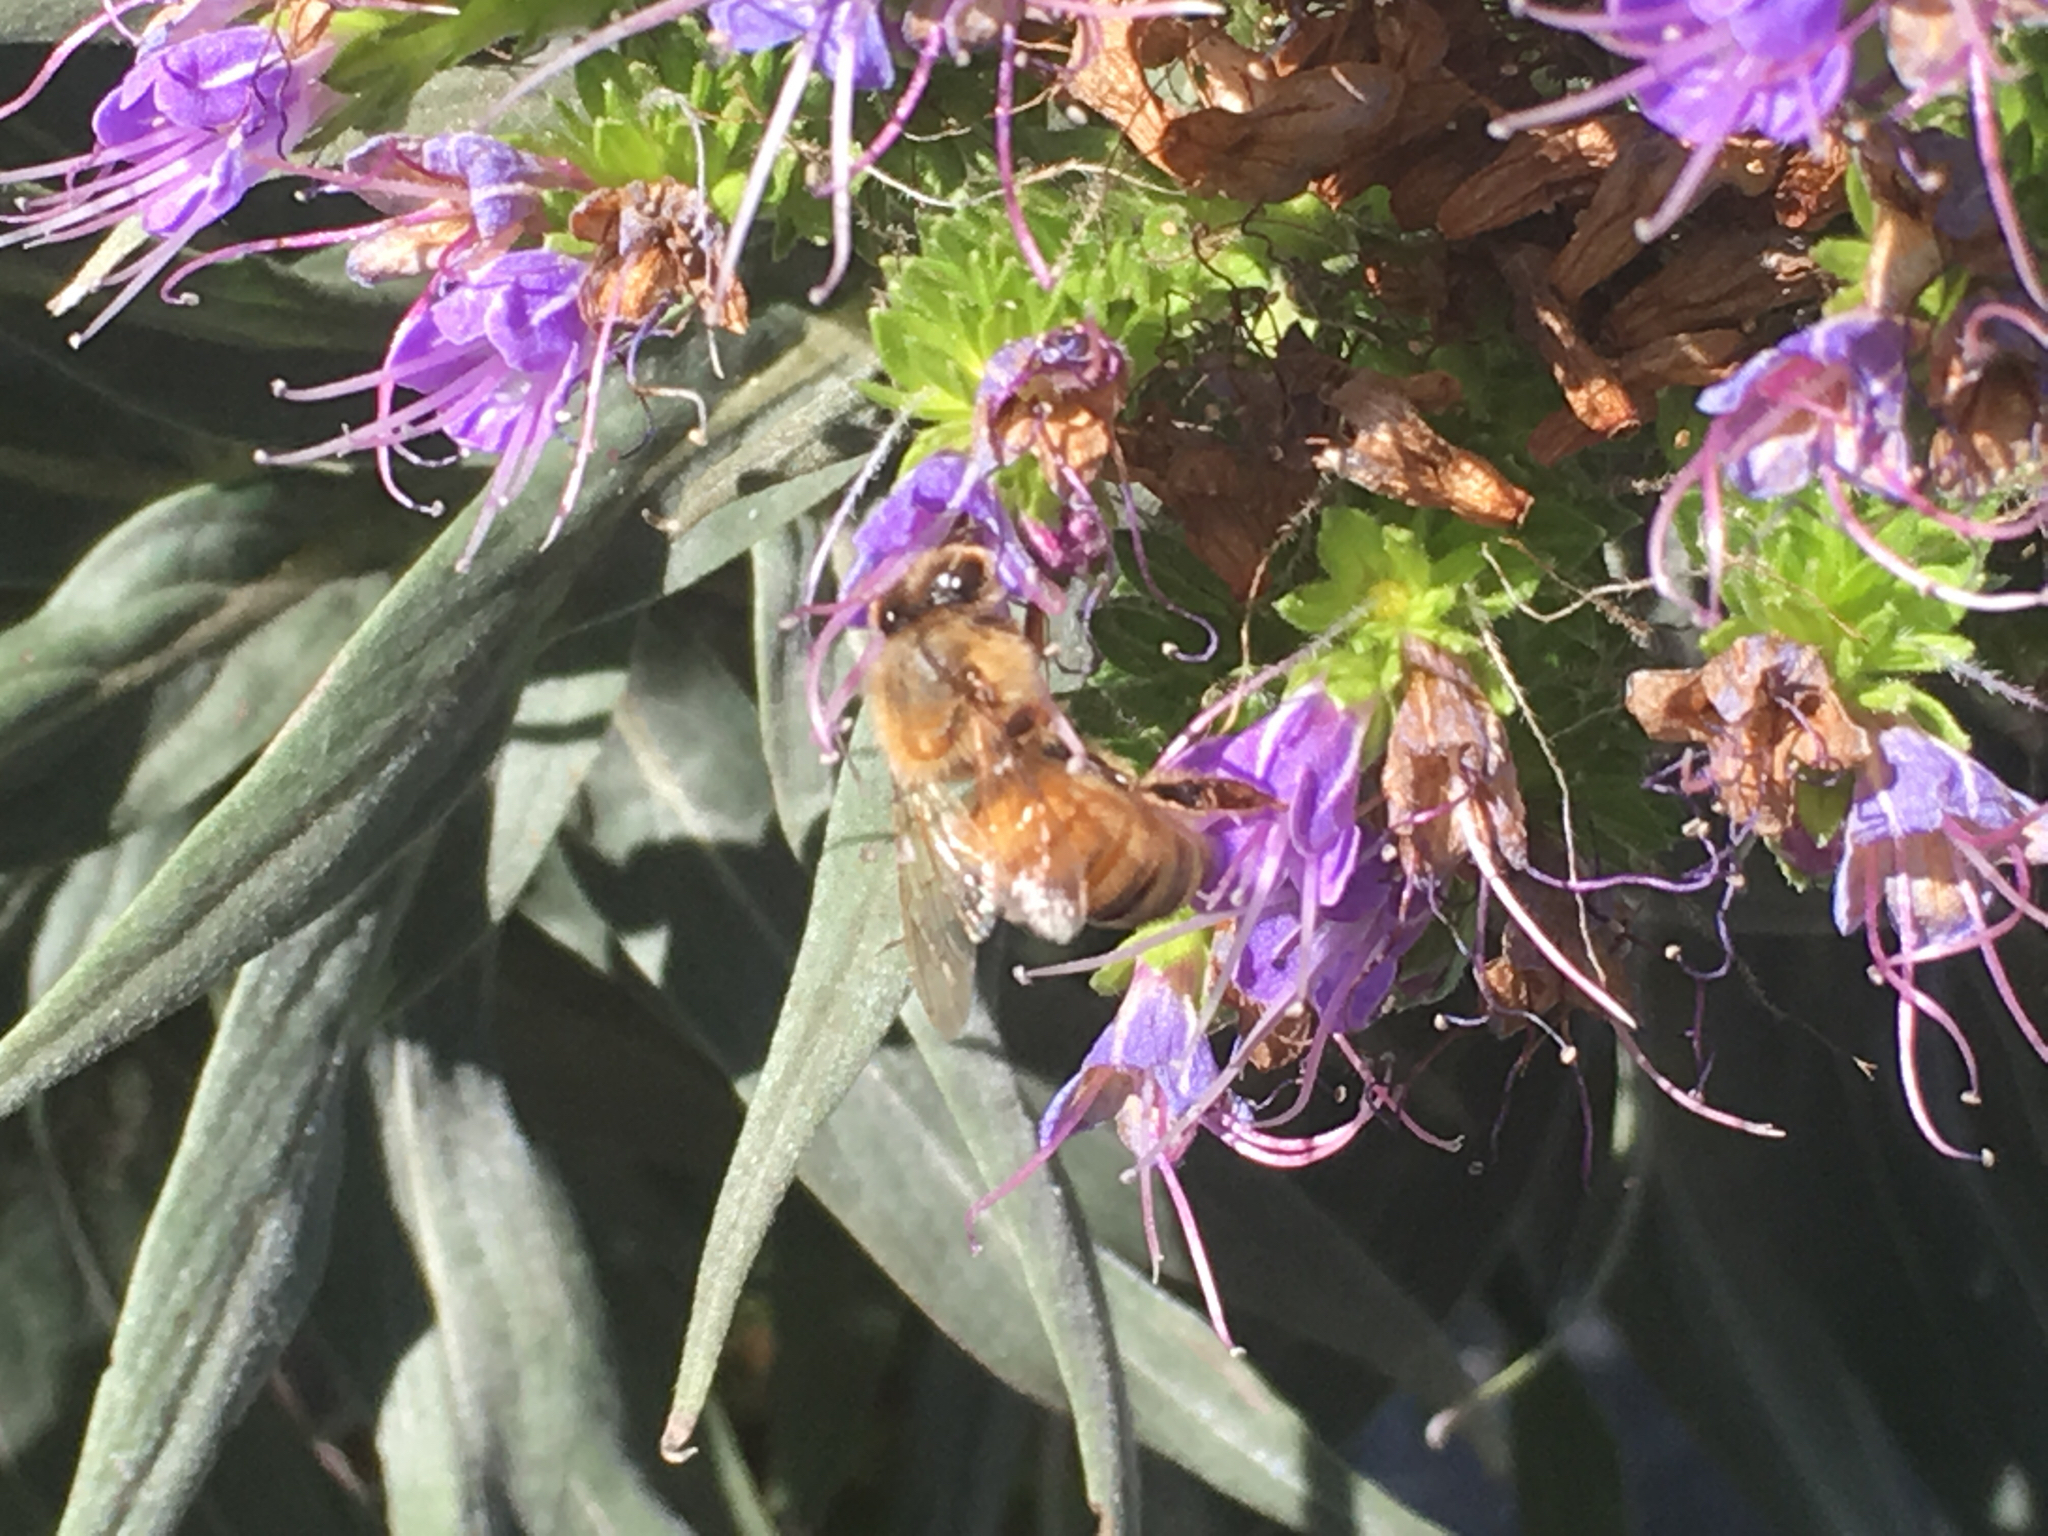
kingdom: Animalia
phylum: Arthropoda
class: Insecta
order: Hymenoptera
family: Apidae
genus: Apis
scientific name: Apis mellifera
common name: Honey bee
